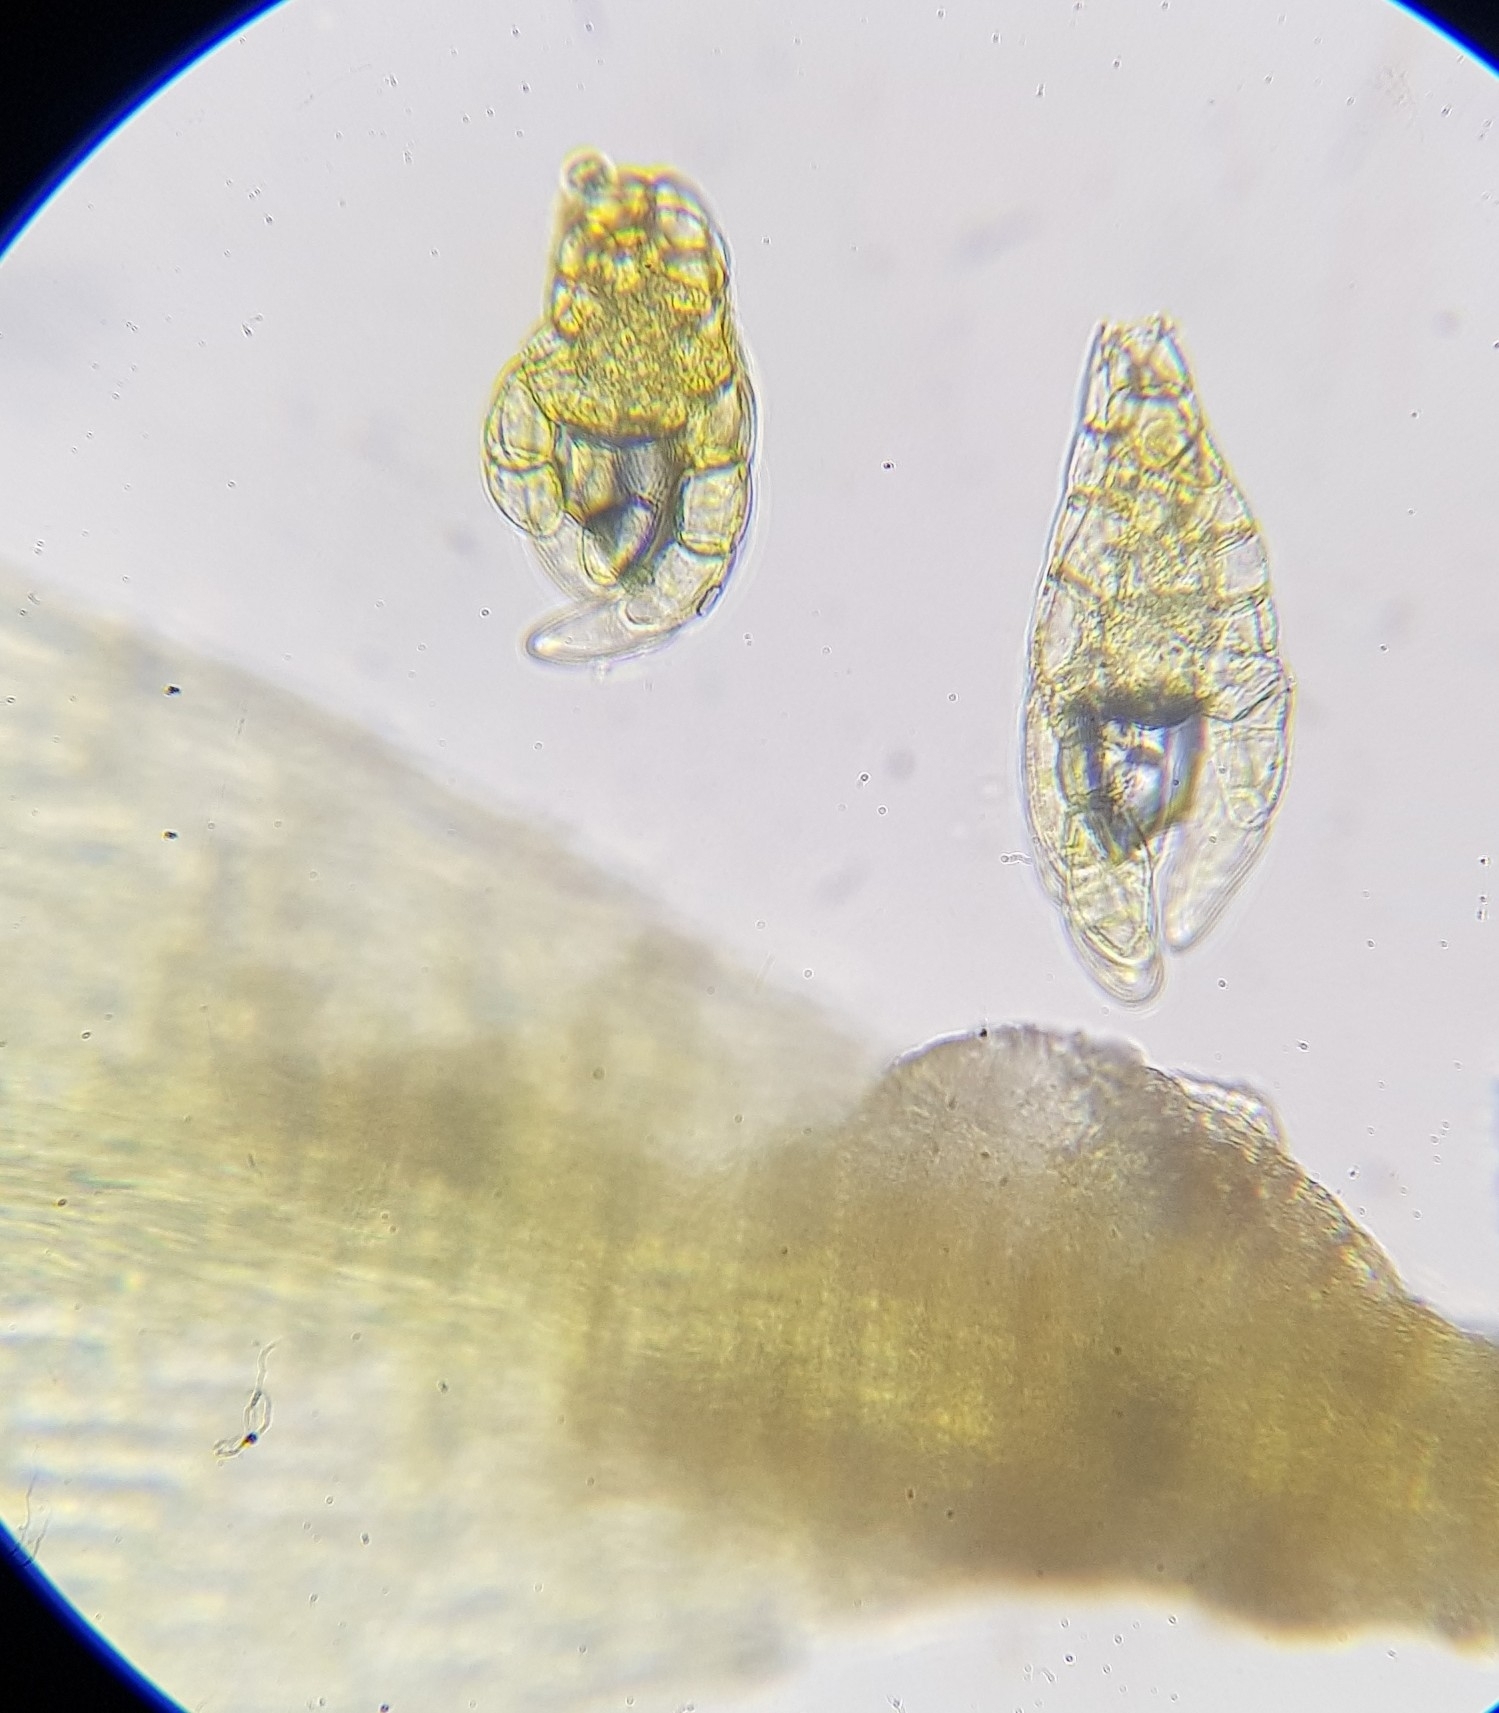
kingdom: Plantae
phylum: Bryophyta
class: Bryopsida
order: Bryales
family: Bryaceae
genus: Gemmabryum
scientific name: Gemmabryum gemmiferum
